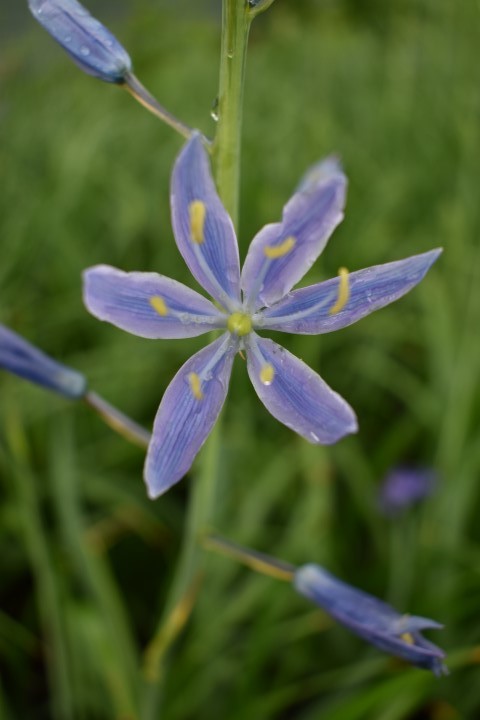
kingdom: Plantae
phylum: Tracheophyta
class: Liliopsida
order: Asparagales
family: Asparagaceae
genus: Camassia
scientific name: Camassia leichtlinii
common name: Leichtlin's camas
